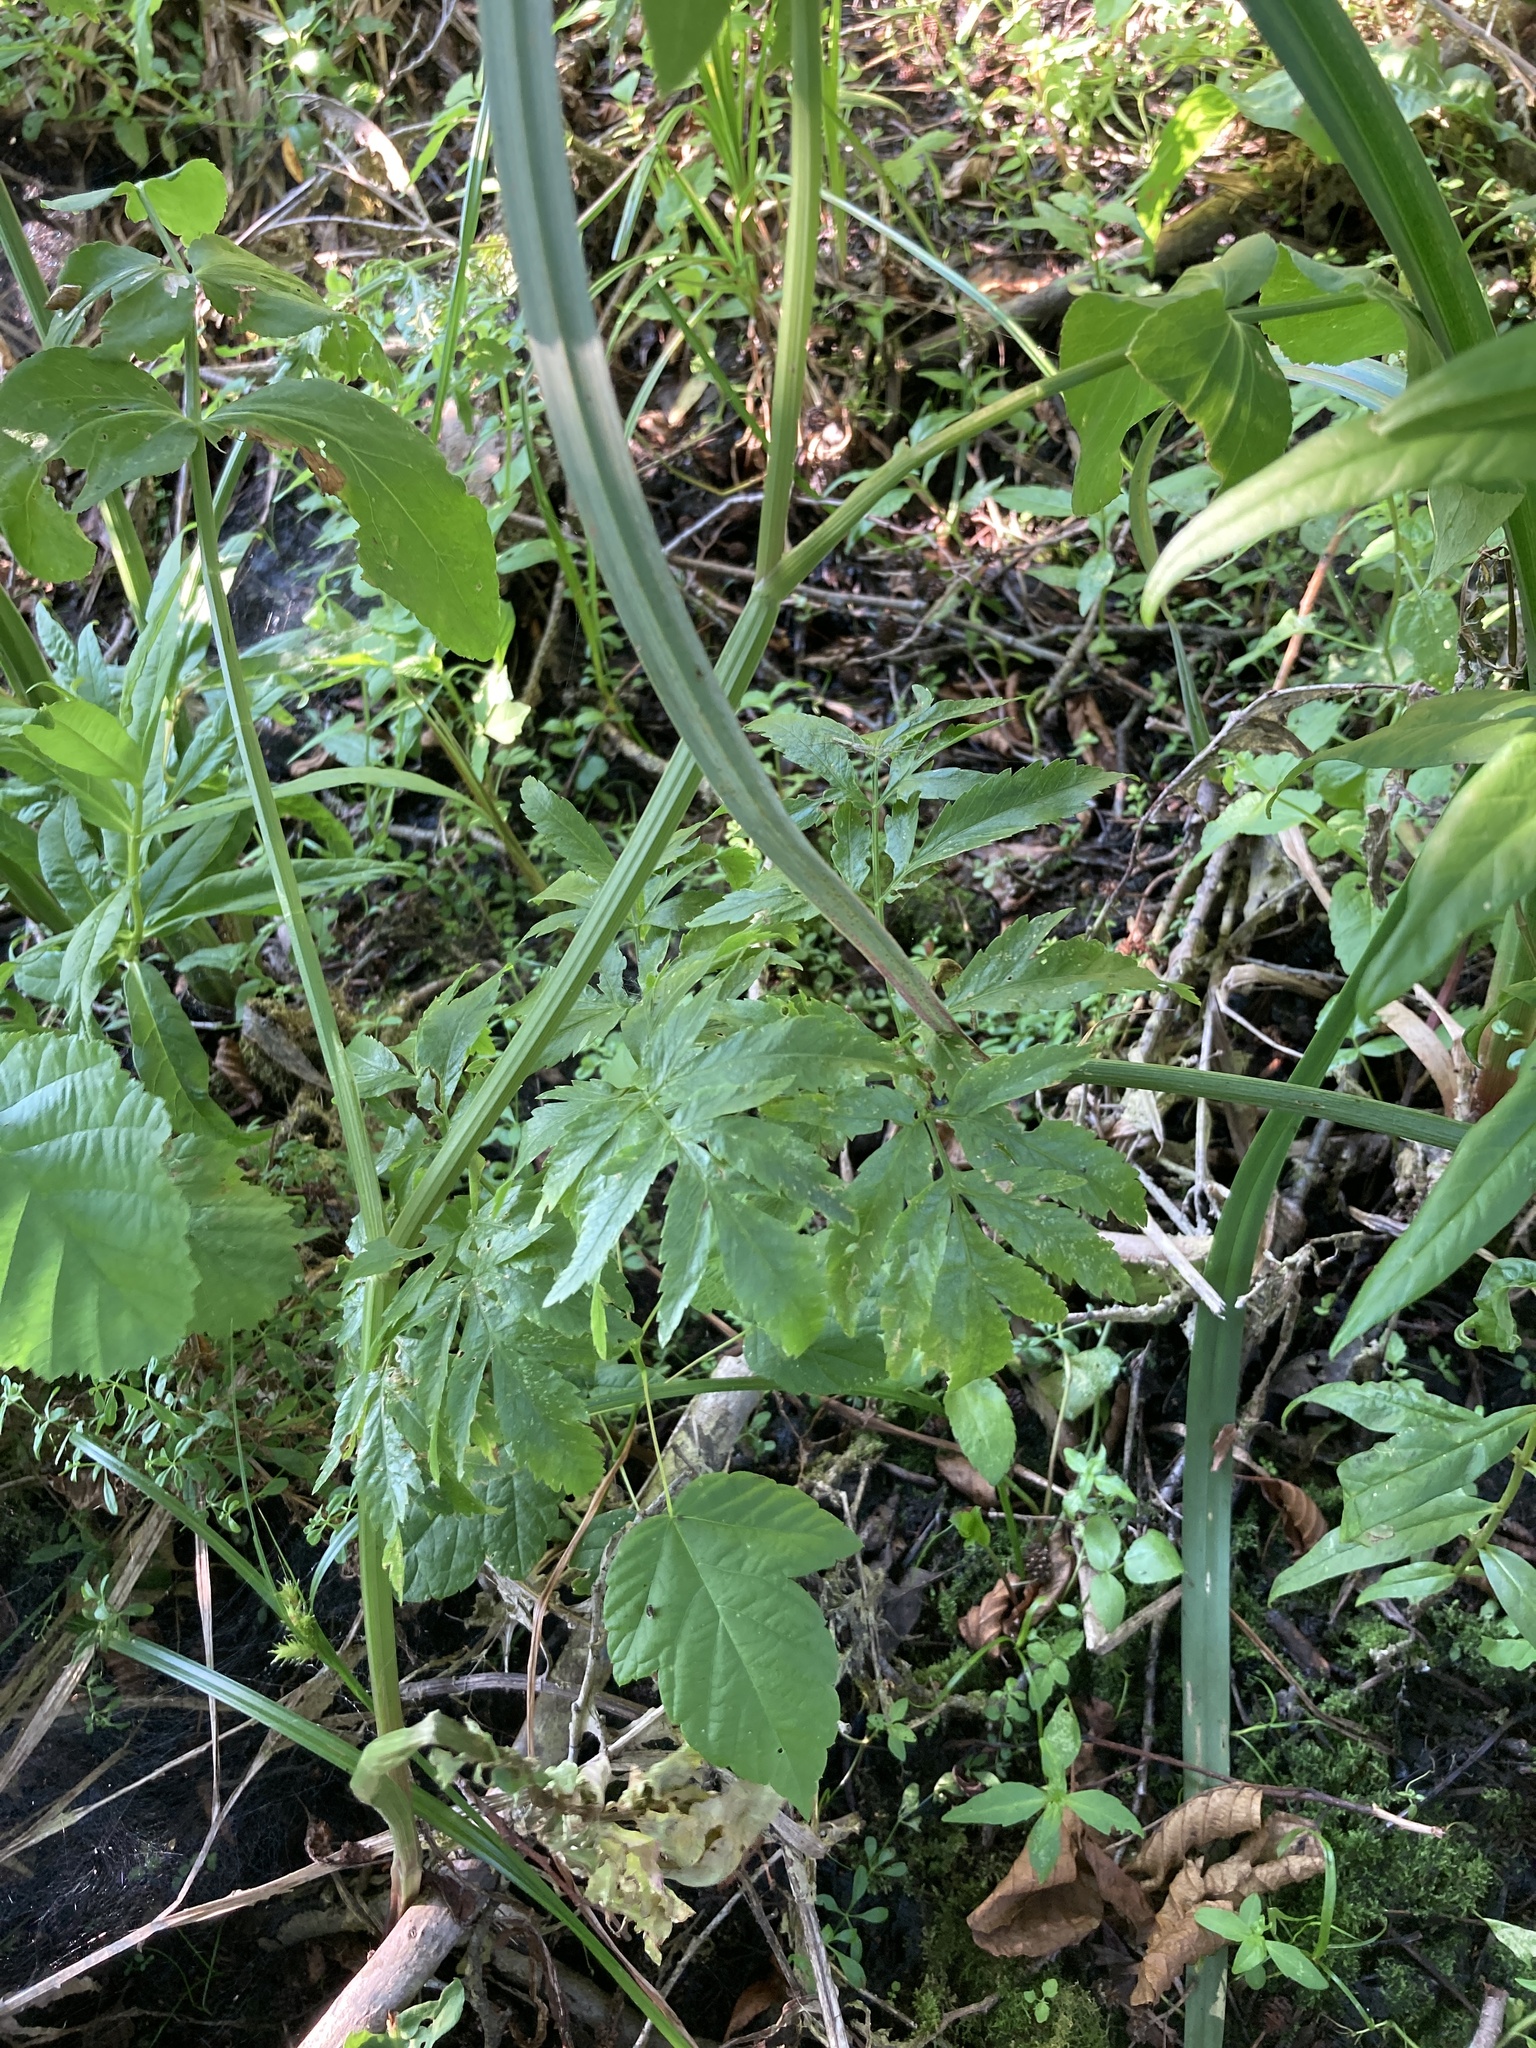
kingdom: Plantae
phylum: Tracheophyta
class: Magnoliopsida
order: Apiales
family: Apiaceae
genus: Sium
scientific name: Sium latifolium
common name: Greater water-parsnip
